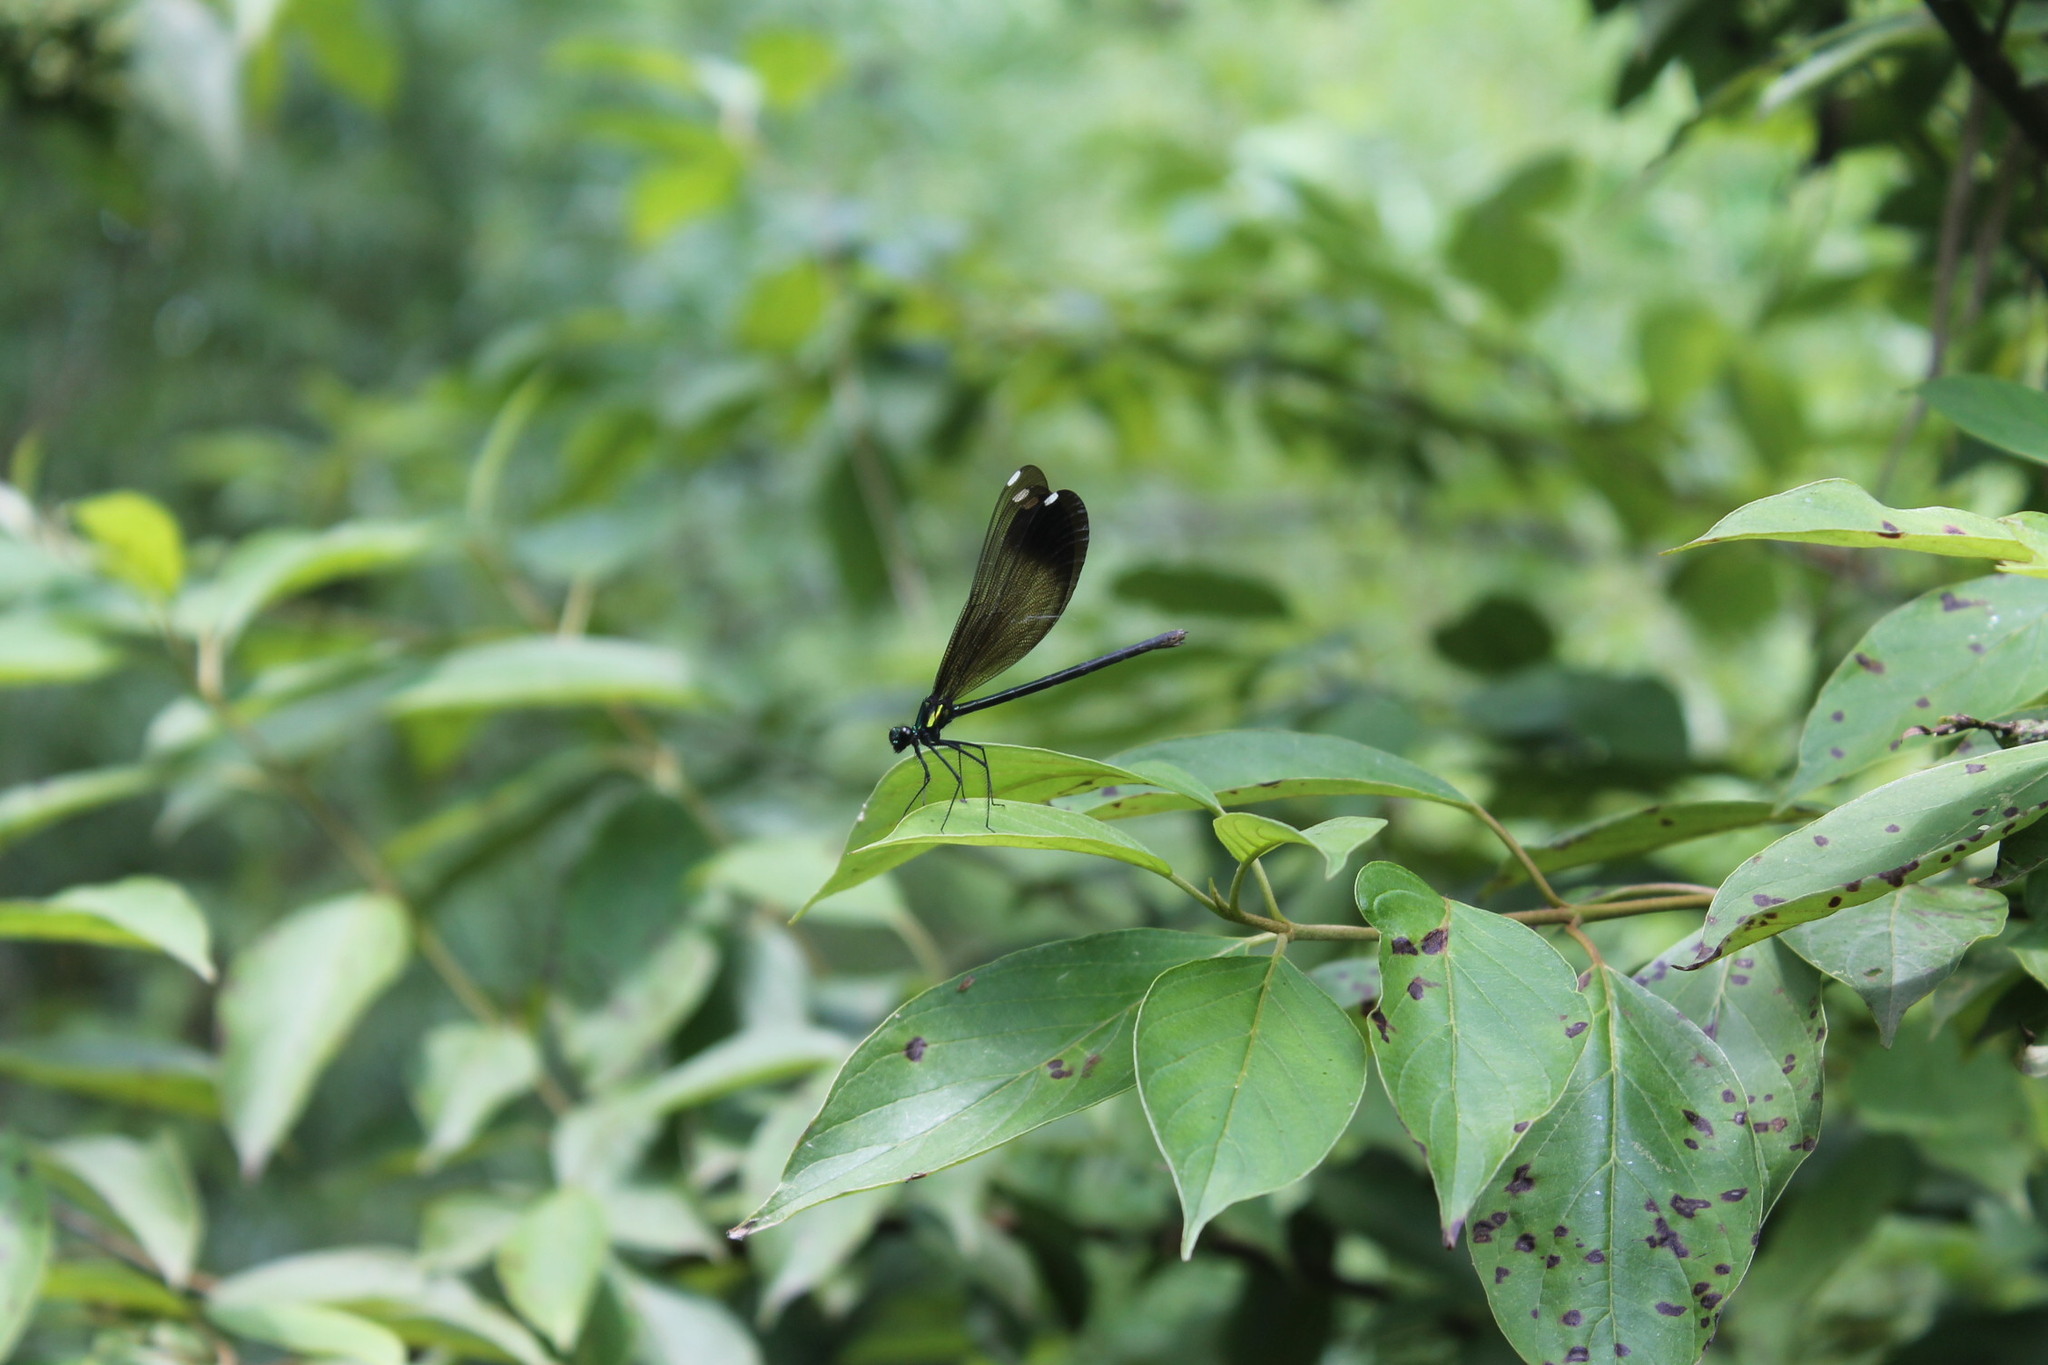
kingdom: Animalia
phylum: Arthropoda
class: Insecta
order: Odonata
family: Calopterygidae
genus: Calopteryx
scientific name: Calopteryx maculata
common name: Ebony jewelwing
